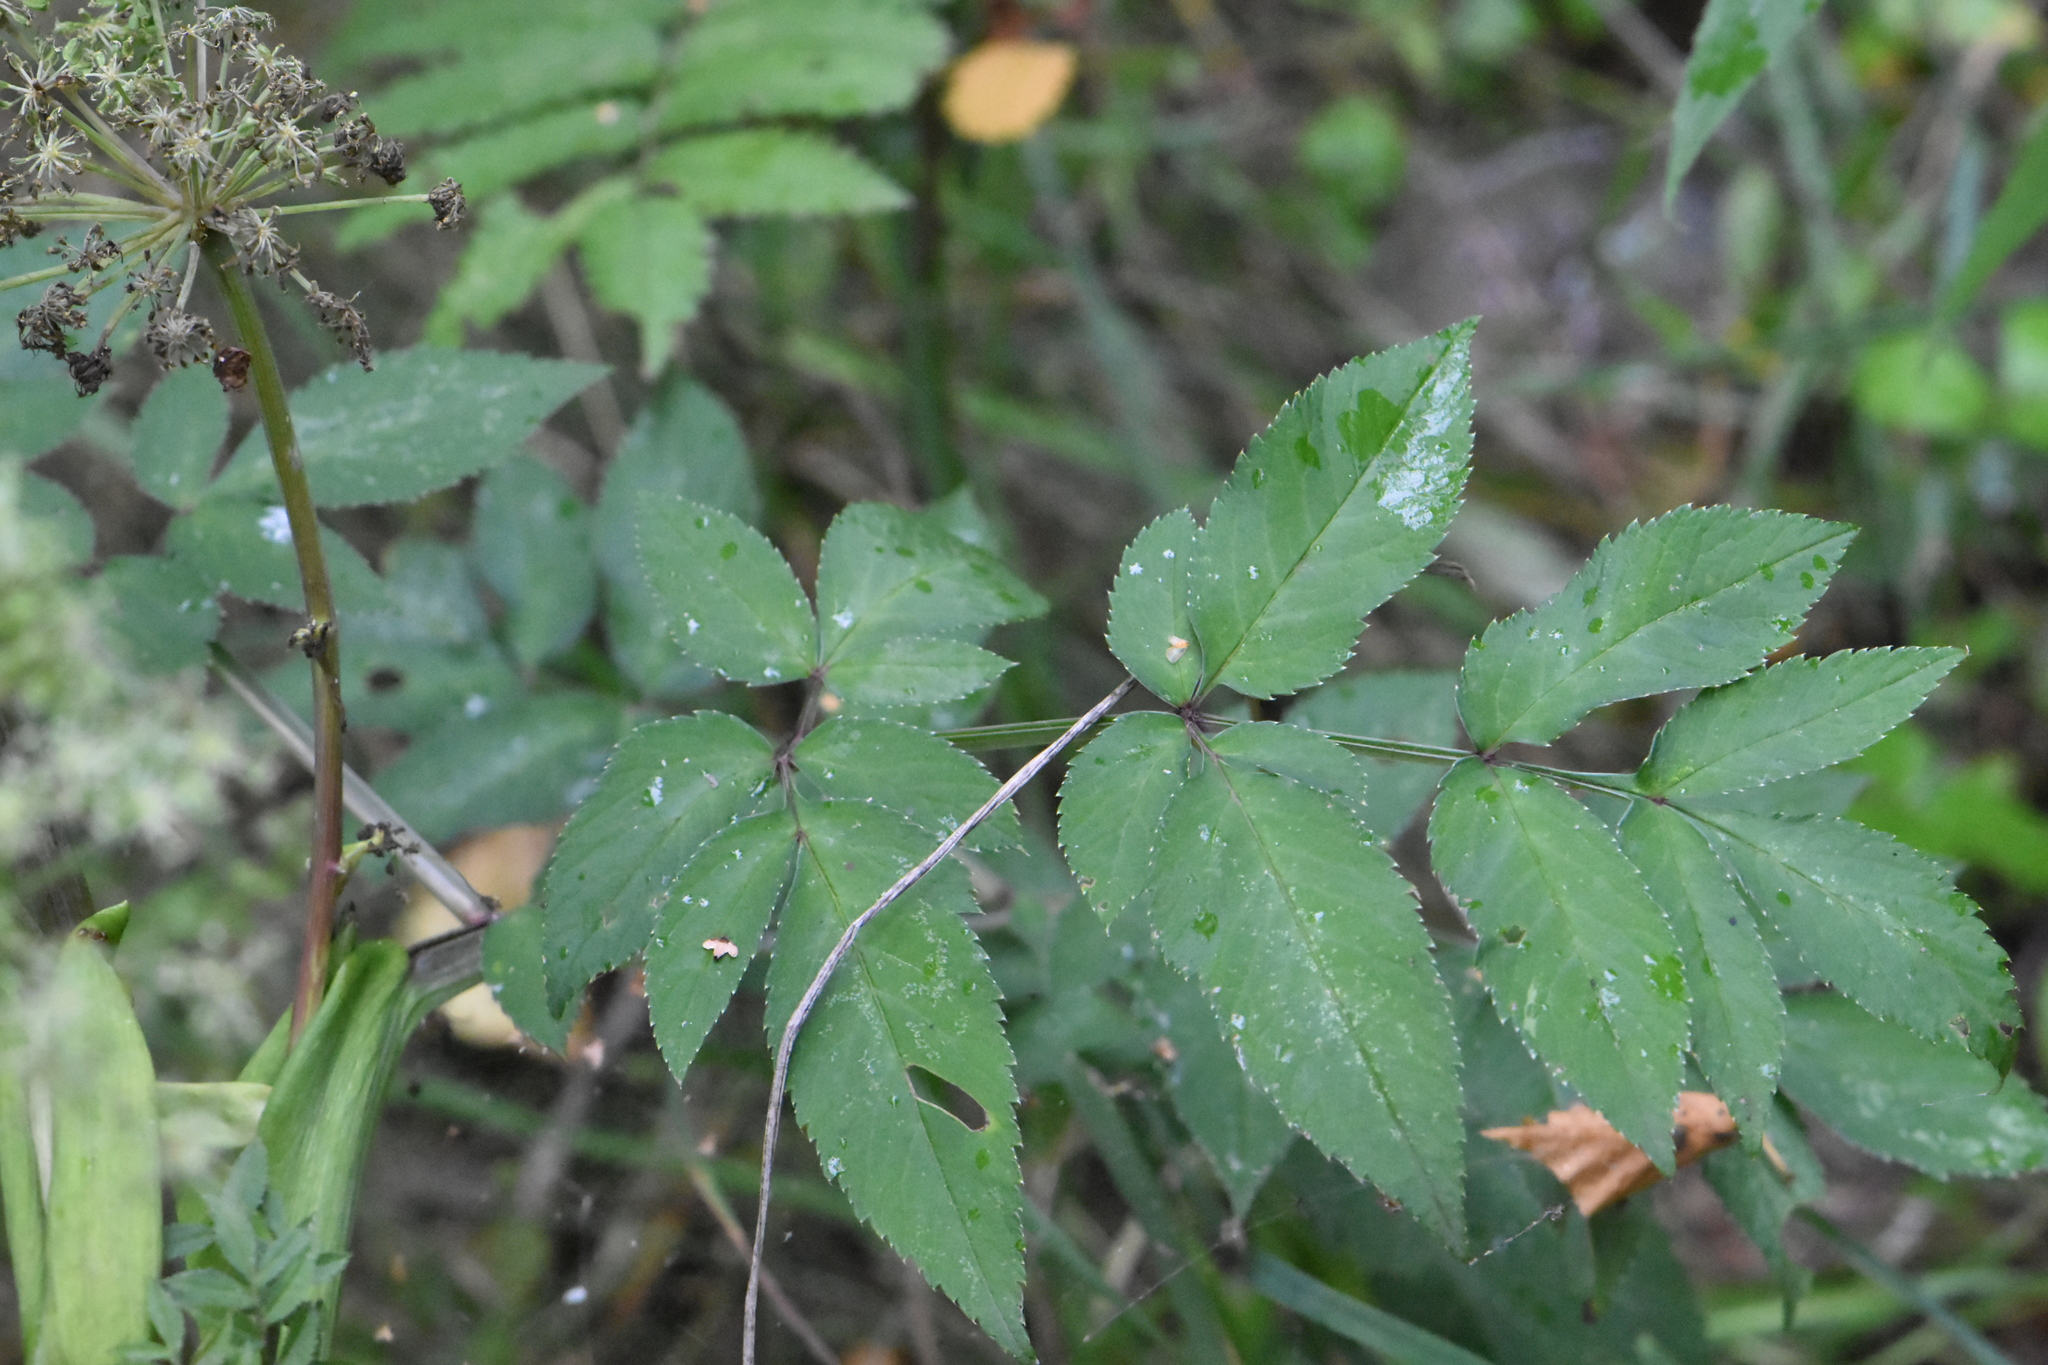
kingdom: Plantae
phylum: Tracheophyta
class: Magnoliopsida
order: Apiales
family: Apiaceae
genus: Angelica
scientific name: Angelica sylvestris
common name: Wild angelica
